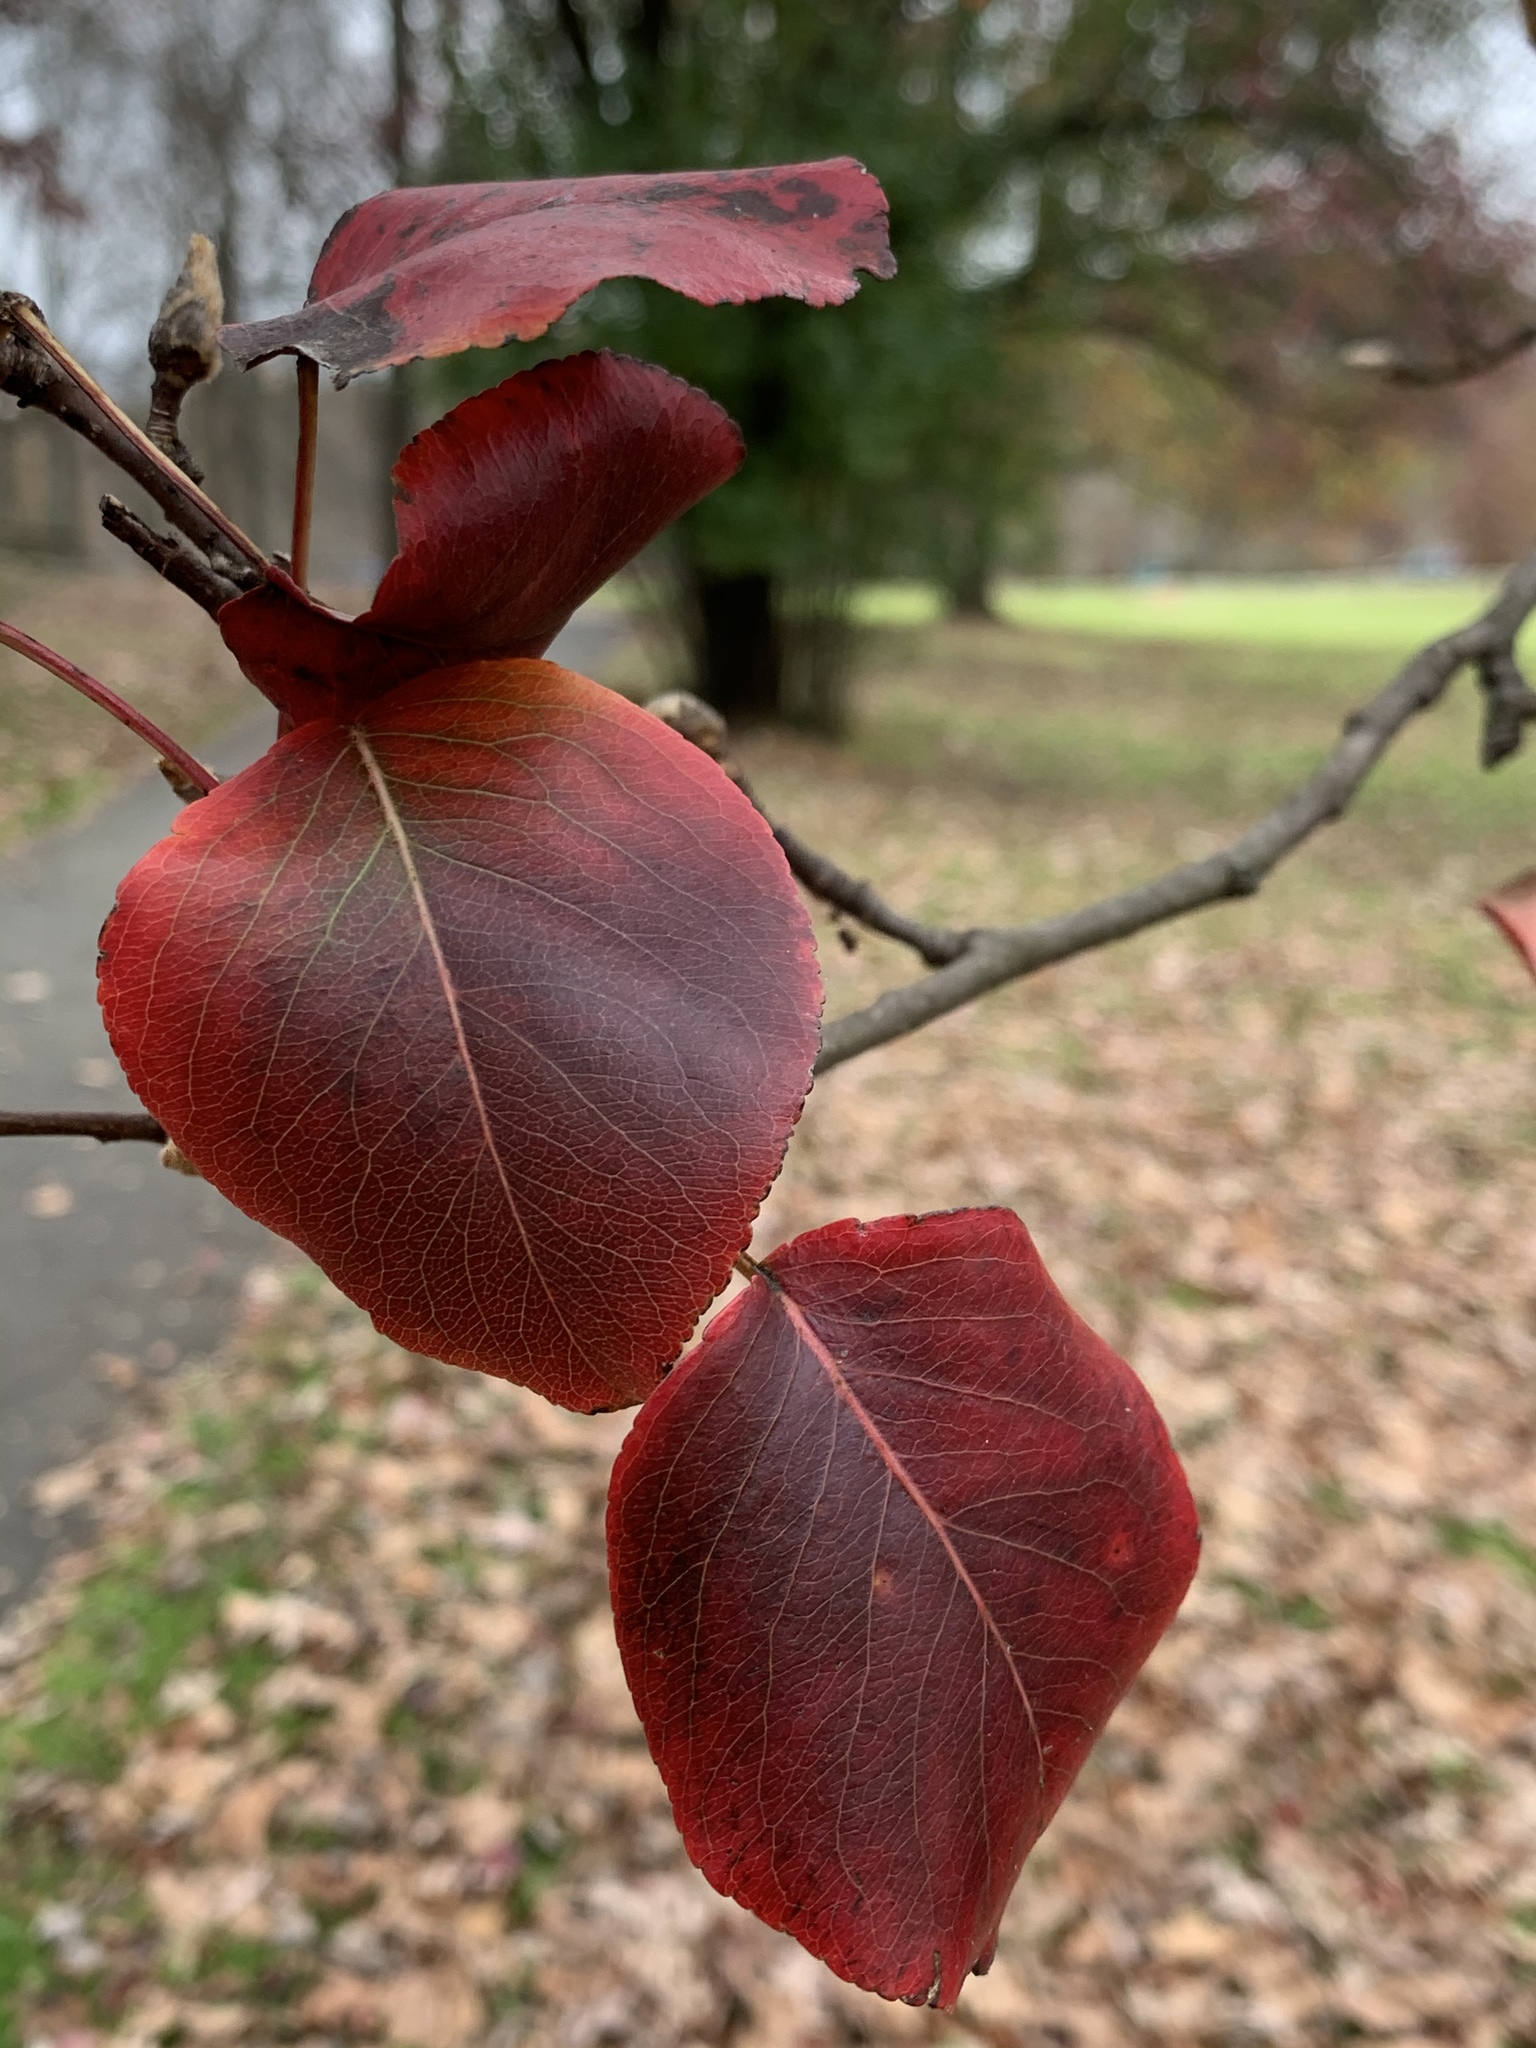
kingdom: Plantae
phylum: Tracheophyta
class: Magnoliopsida
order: Rosales
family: Rosaceae
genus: Pyrus
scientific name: Pyrus calleryana
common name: Callery pear
